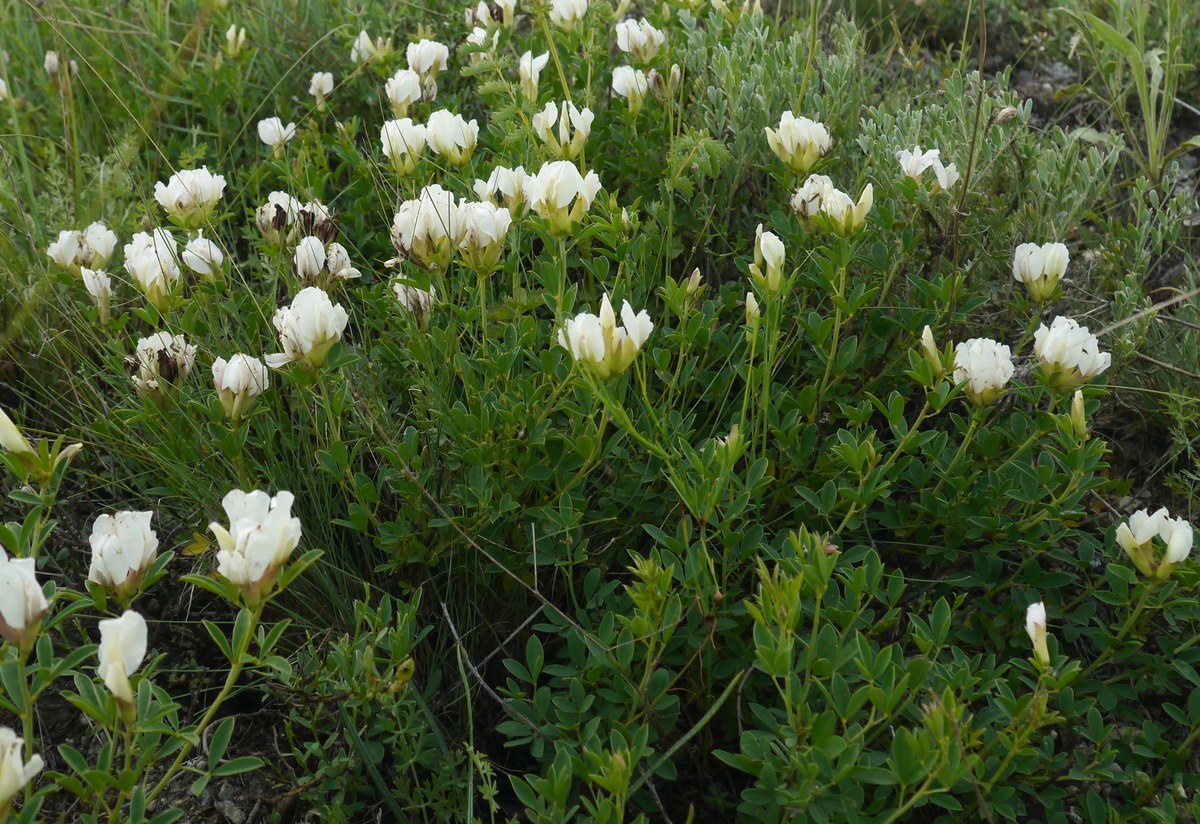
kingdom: Plantae
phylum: Tracheophyta
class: Magnoliopsida
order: Fabales
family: Fabaceae
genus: Chamaecytisus
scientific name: Chamaecytisus skrobiszewskii
